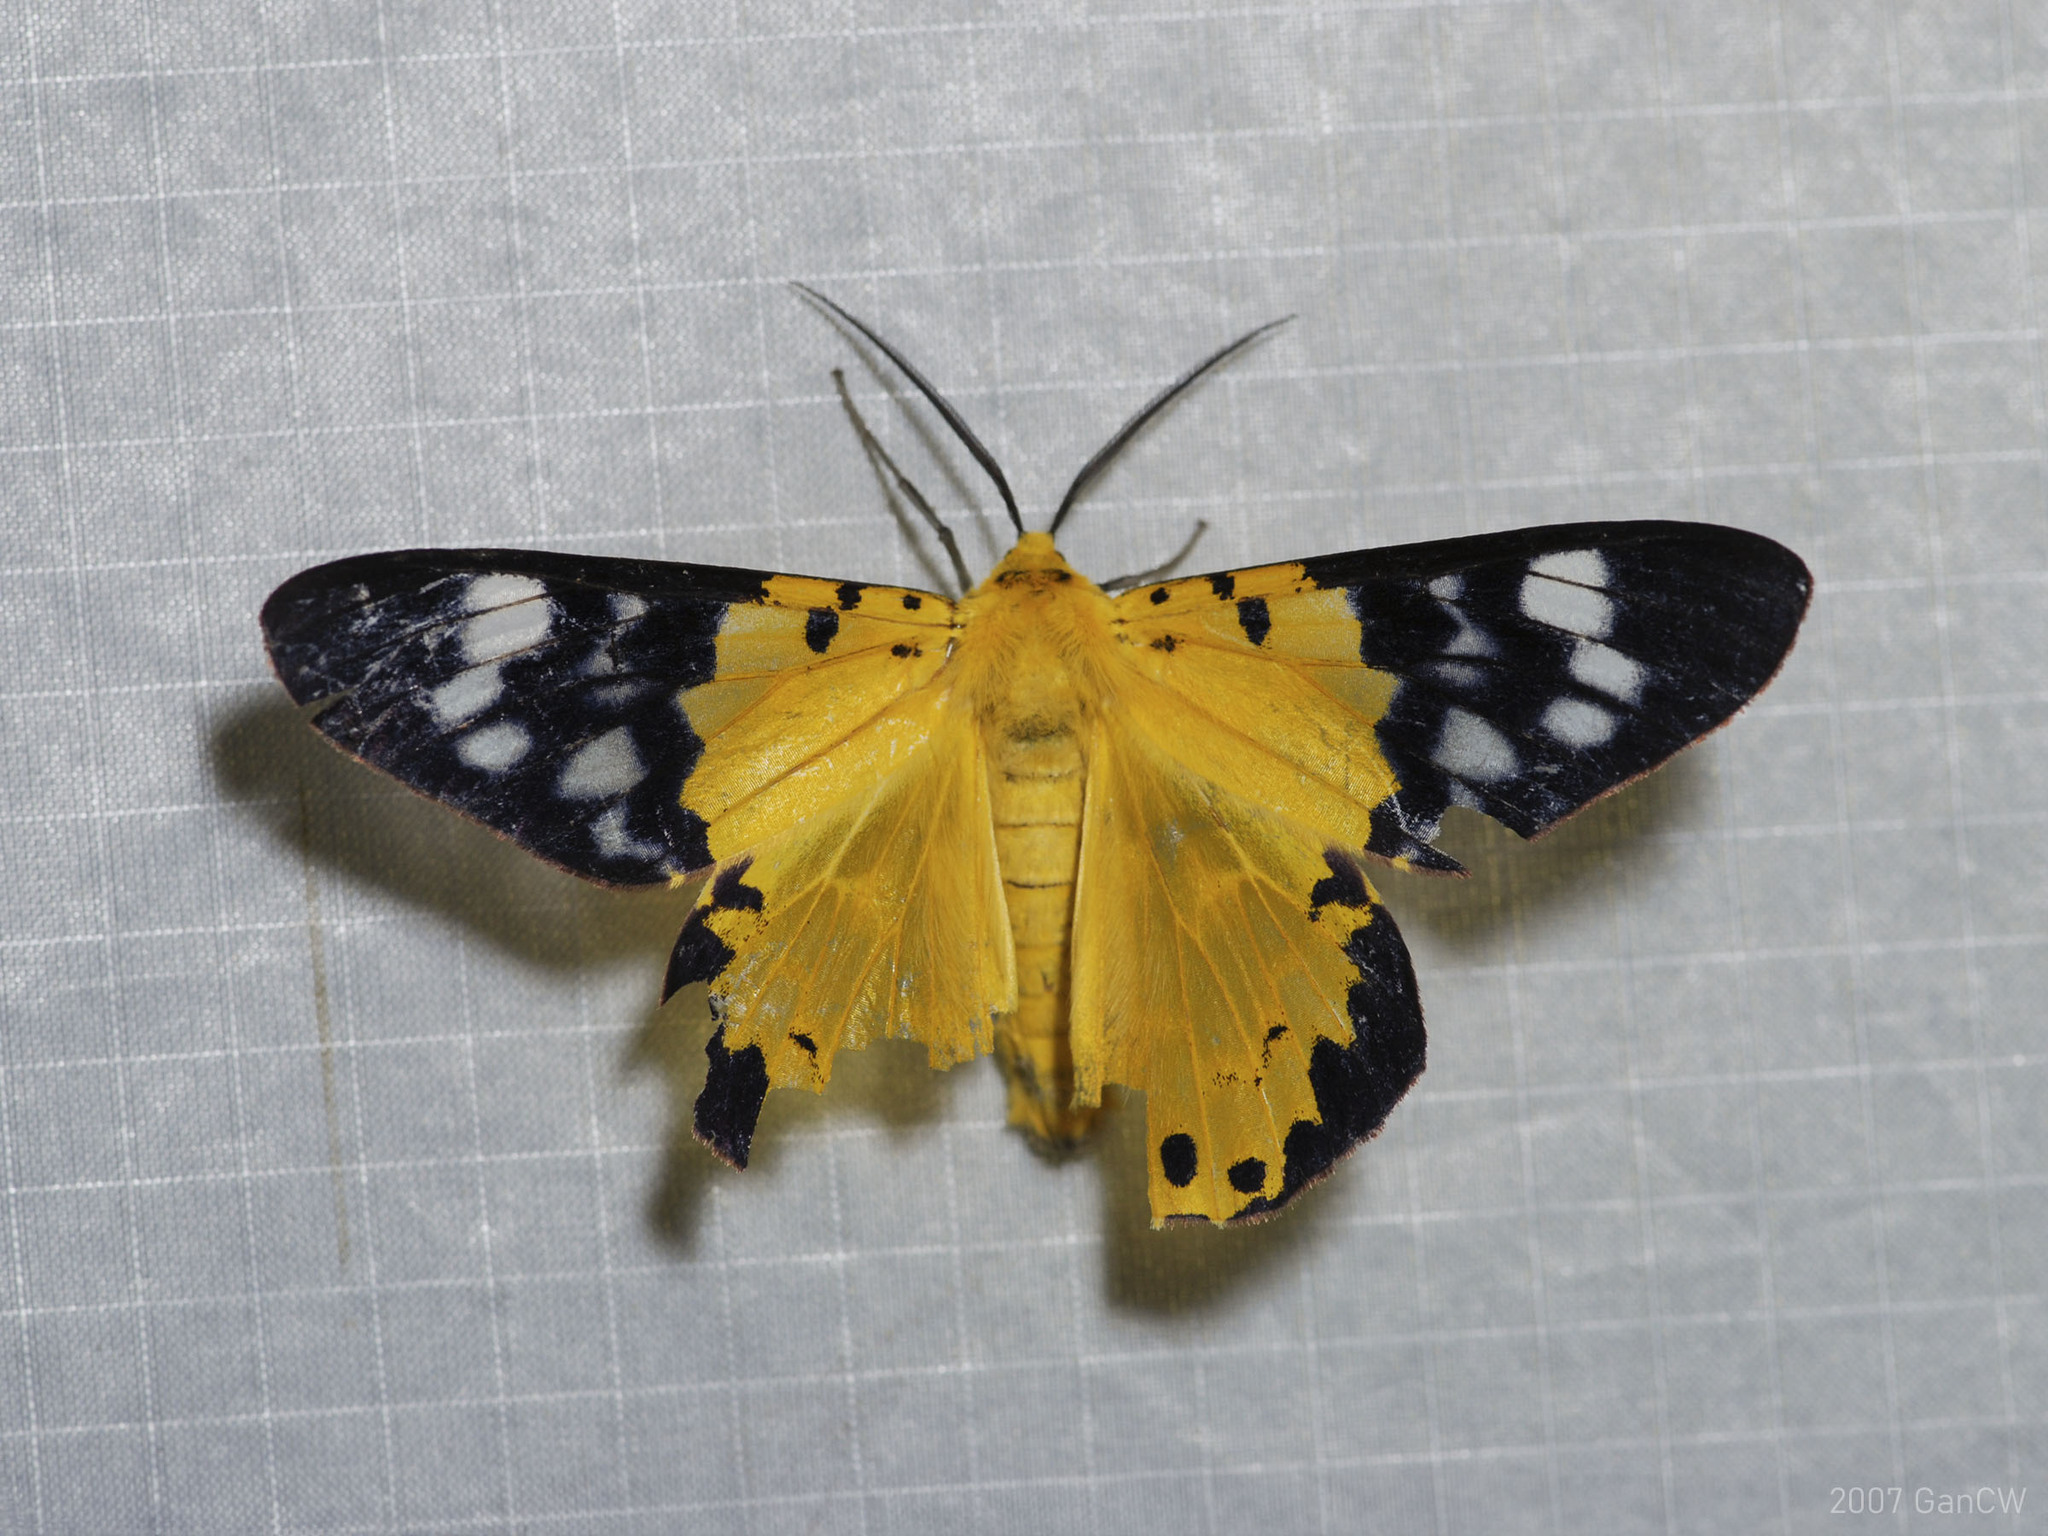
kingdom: Animalia
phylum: Arthropoda
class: Insecta
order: Lepidoptera
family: Geometridae
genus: Dysphania
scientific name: Dysphania sagana
